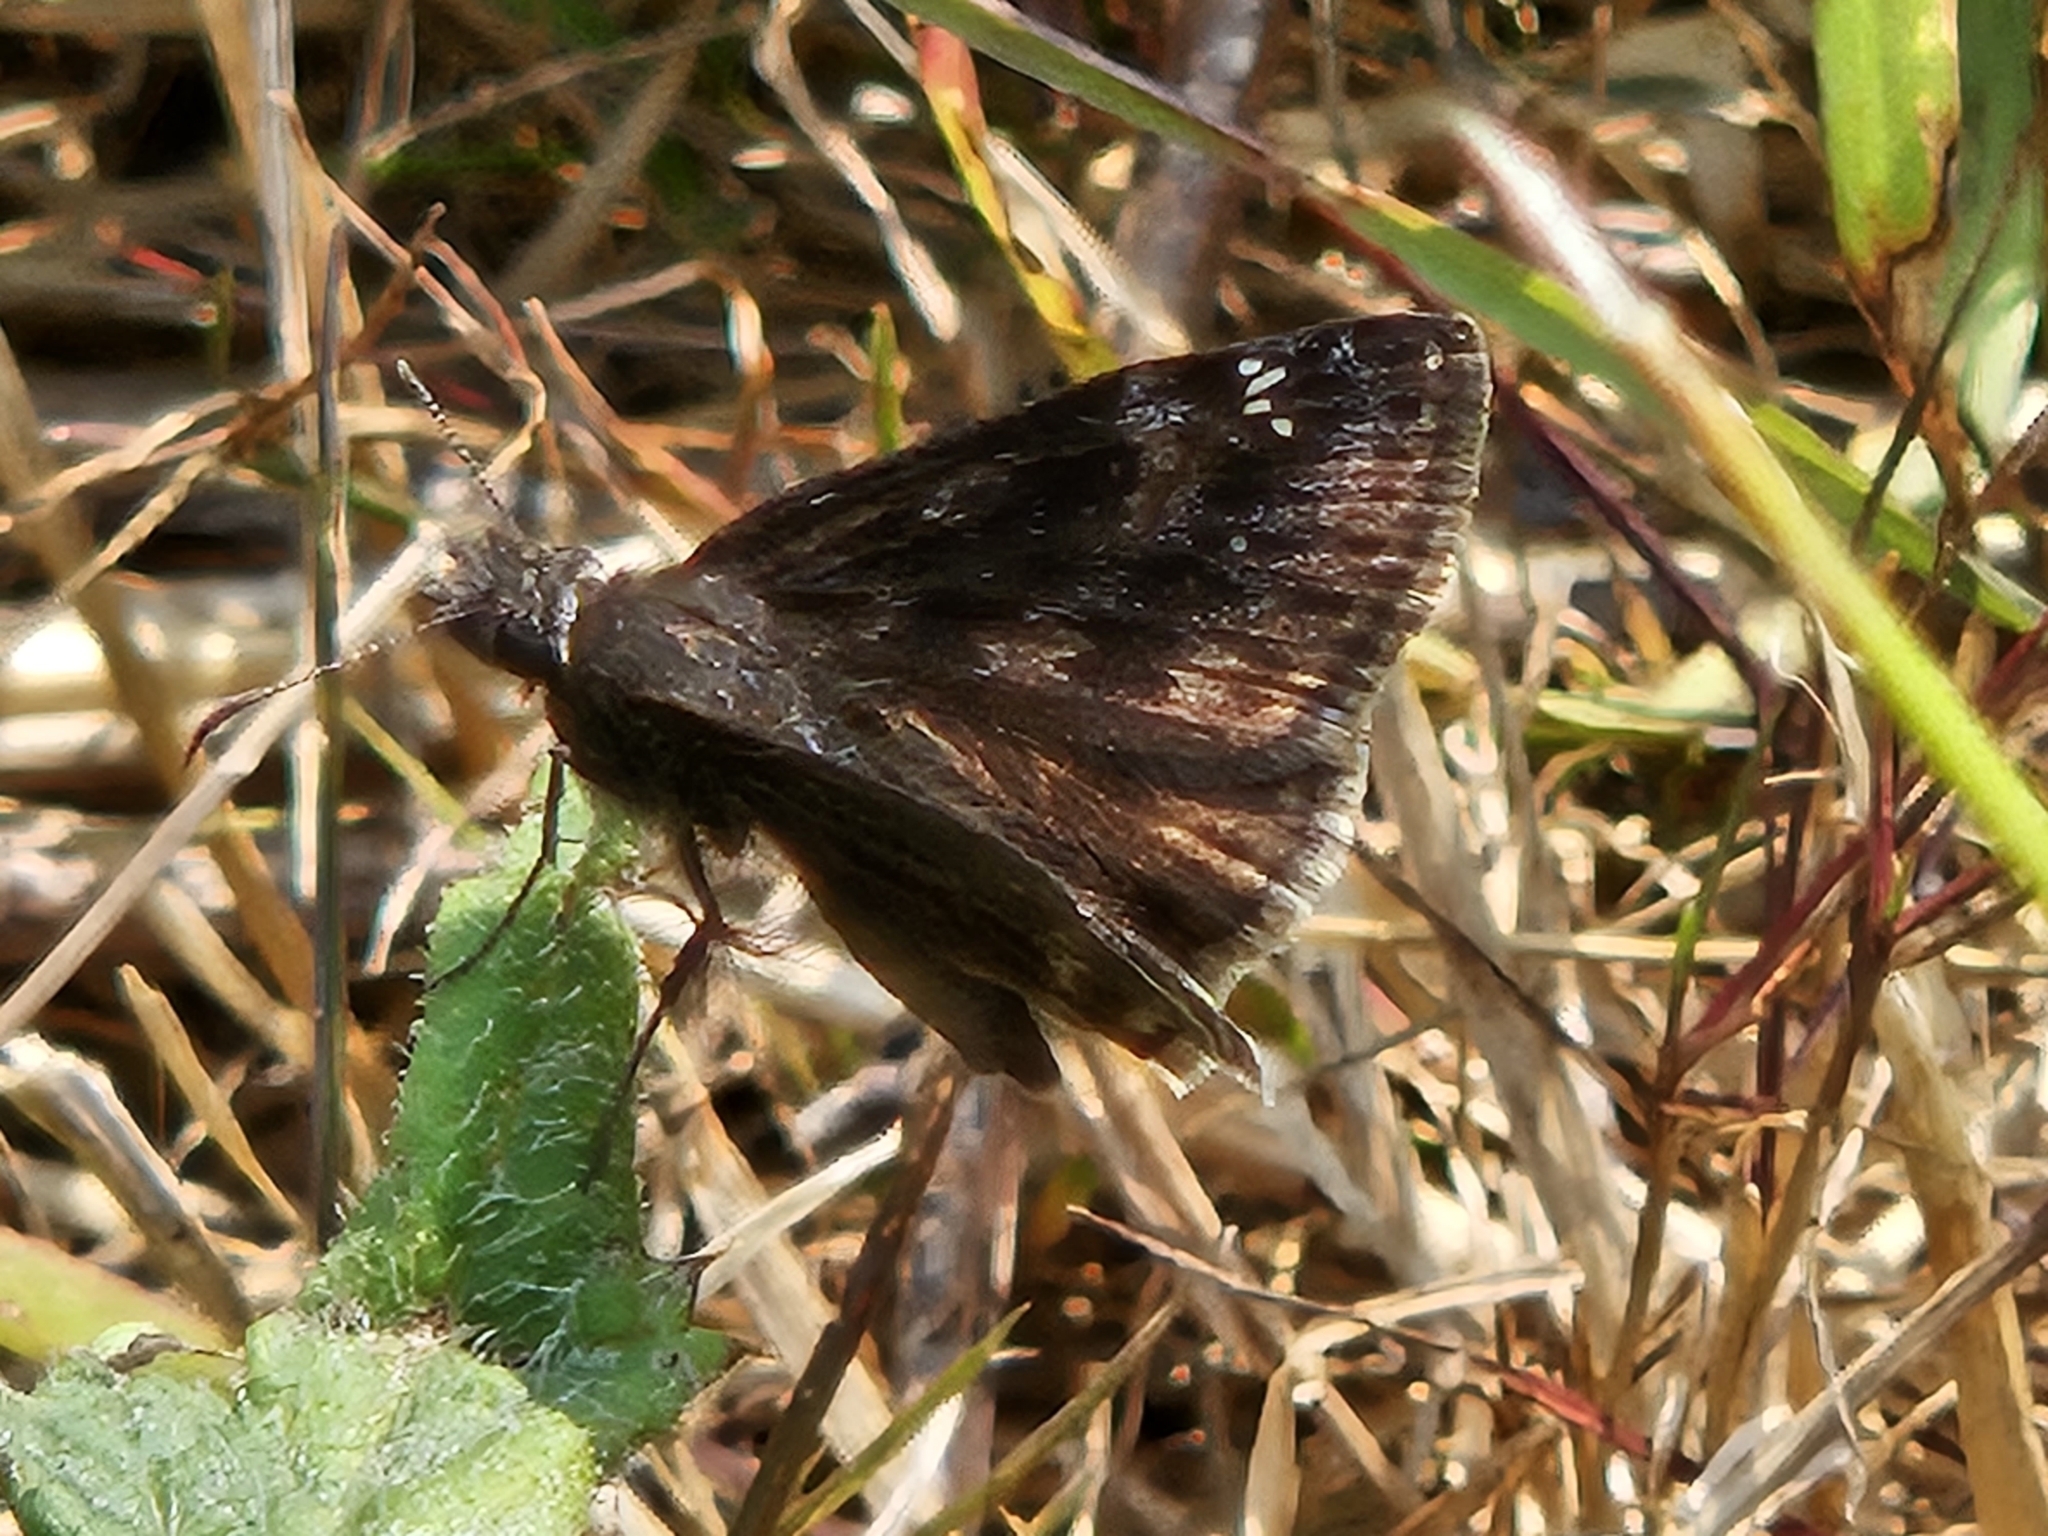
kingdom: Animalia
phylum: Arthropoda
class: Insecta
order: Lepidoptera
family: Hesperiidae
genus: Erynnis
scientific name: Erynnis baptisiae
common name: Wild indigo duskywing
